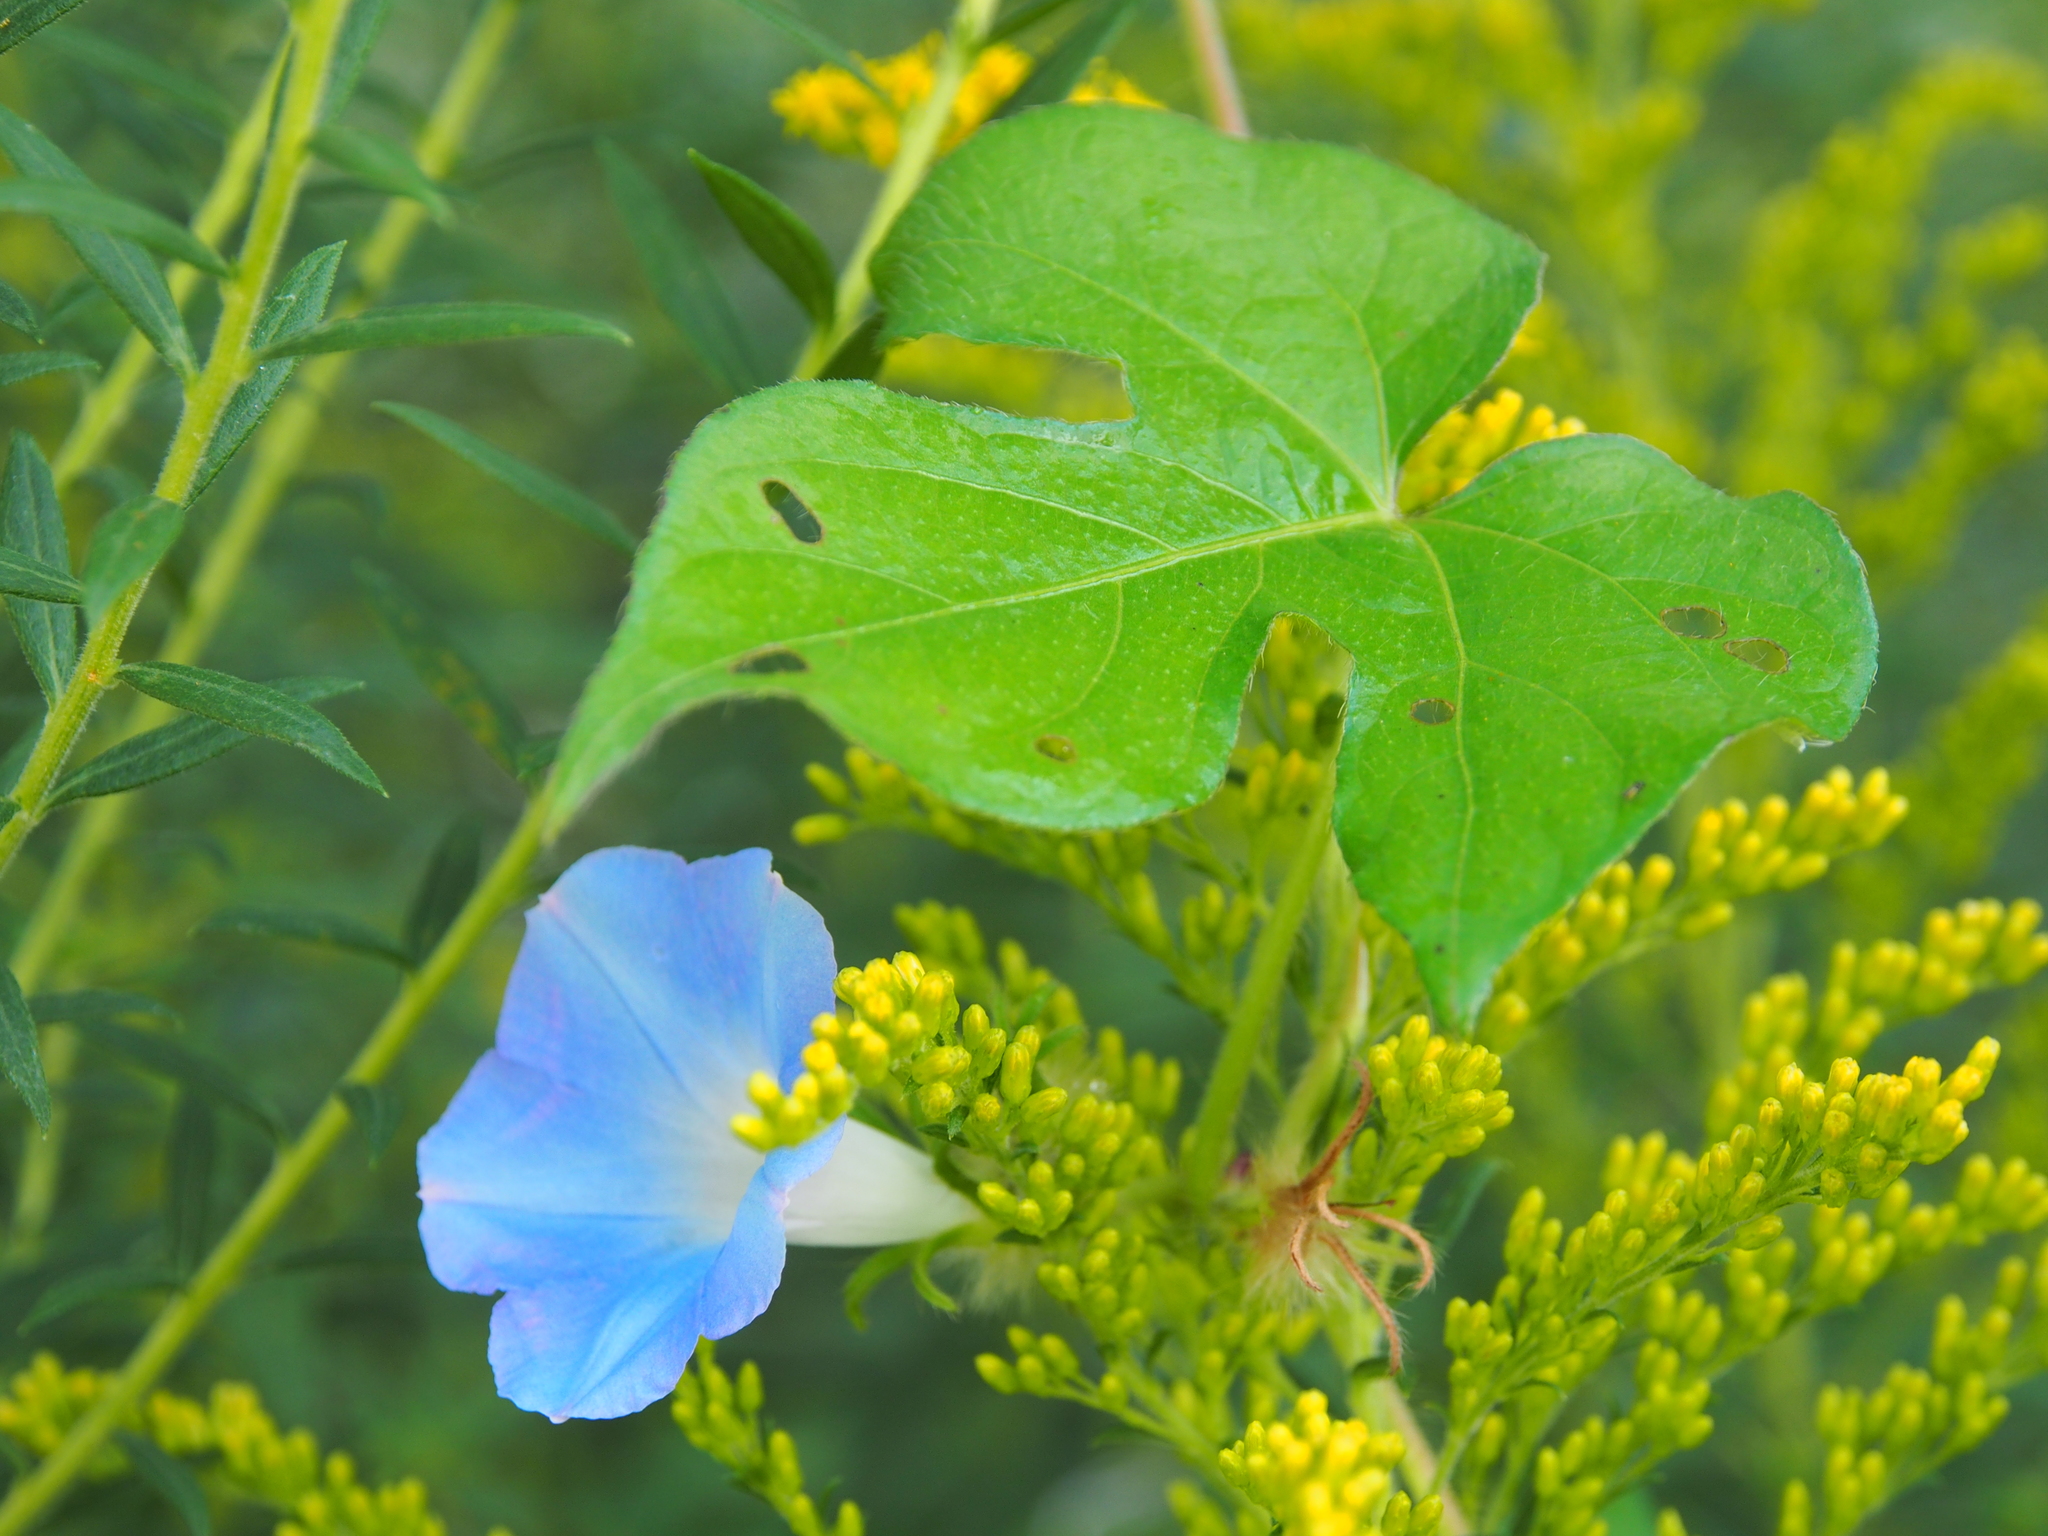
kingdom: Plantae
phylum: Tracheophyta
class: Magnoliopsida
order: Solanales
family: Convolvulaceae
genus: Ipomoea
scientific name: Ipomoea hederacea
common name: Ivy-leaved morning-glory
